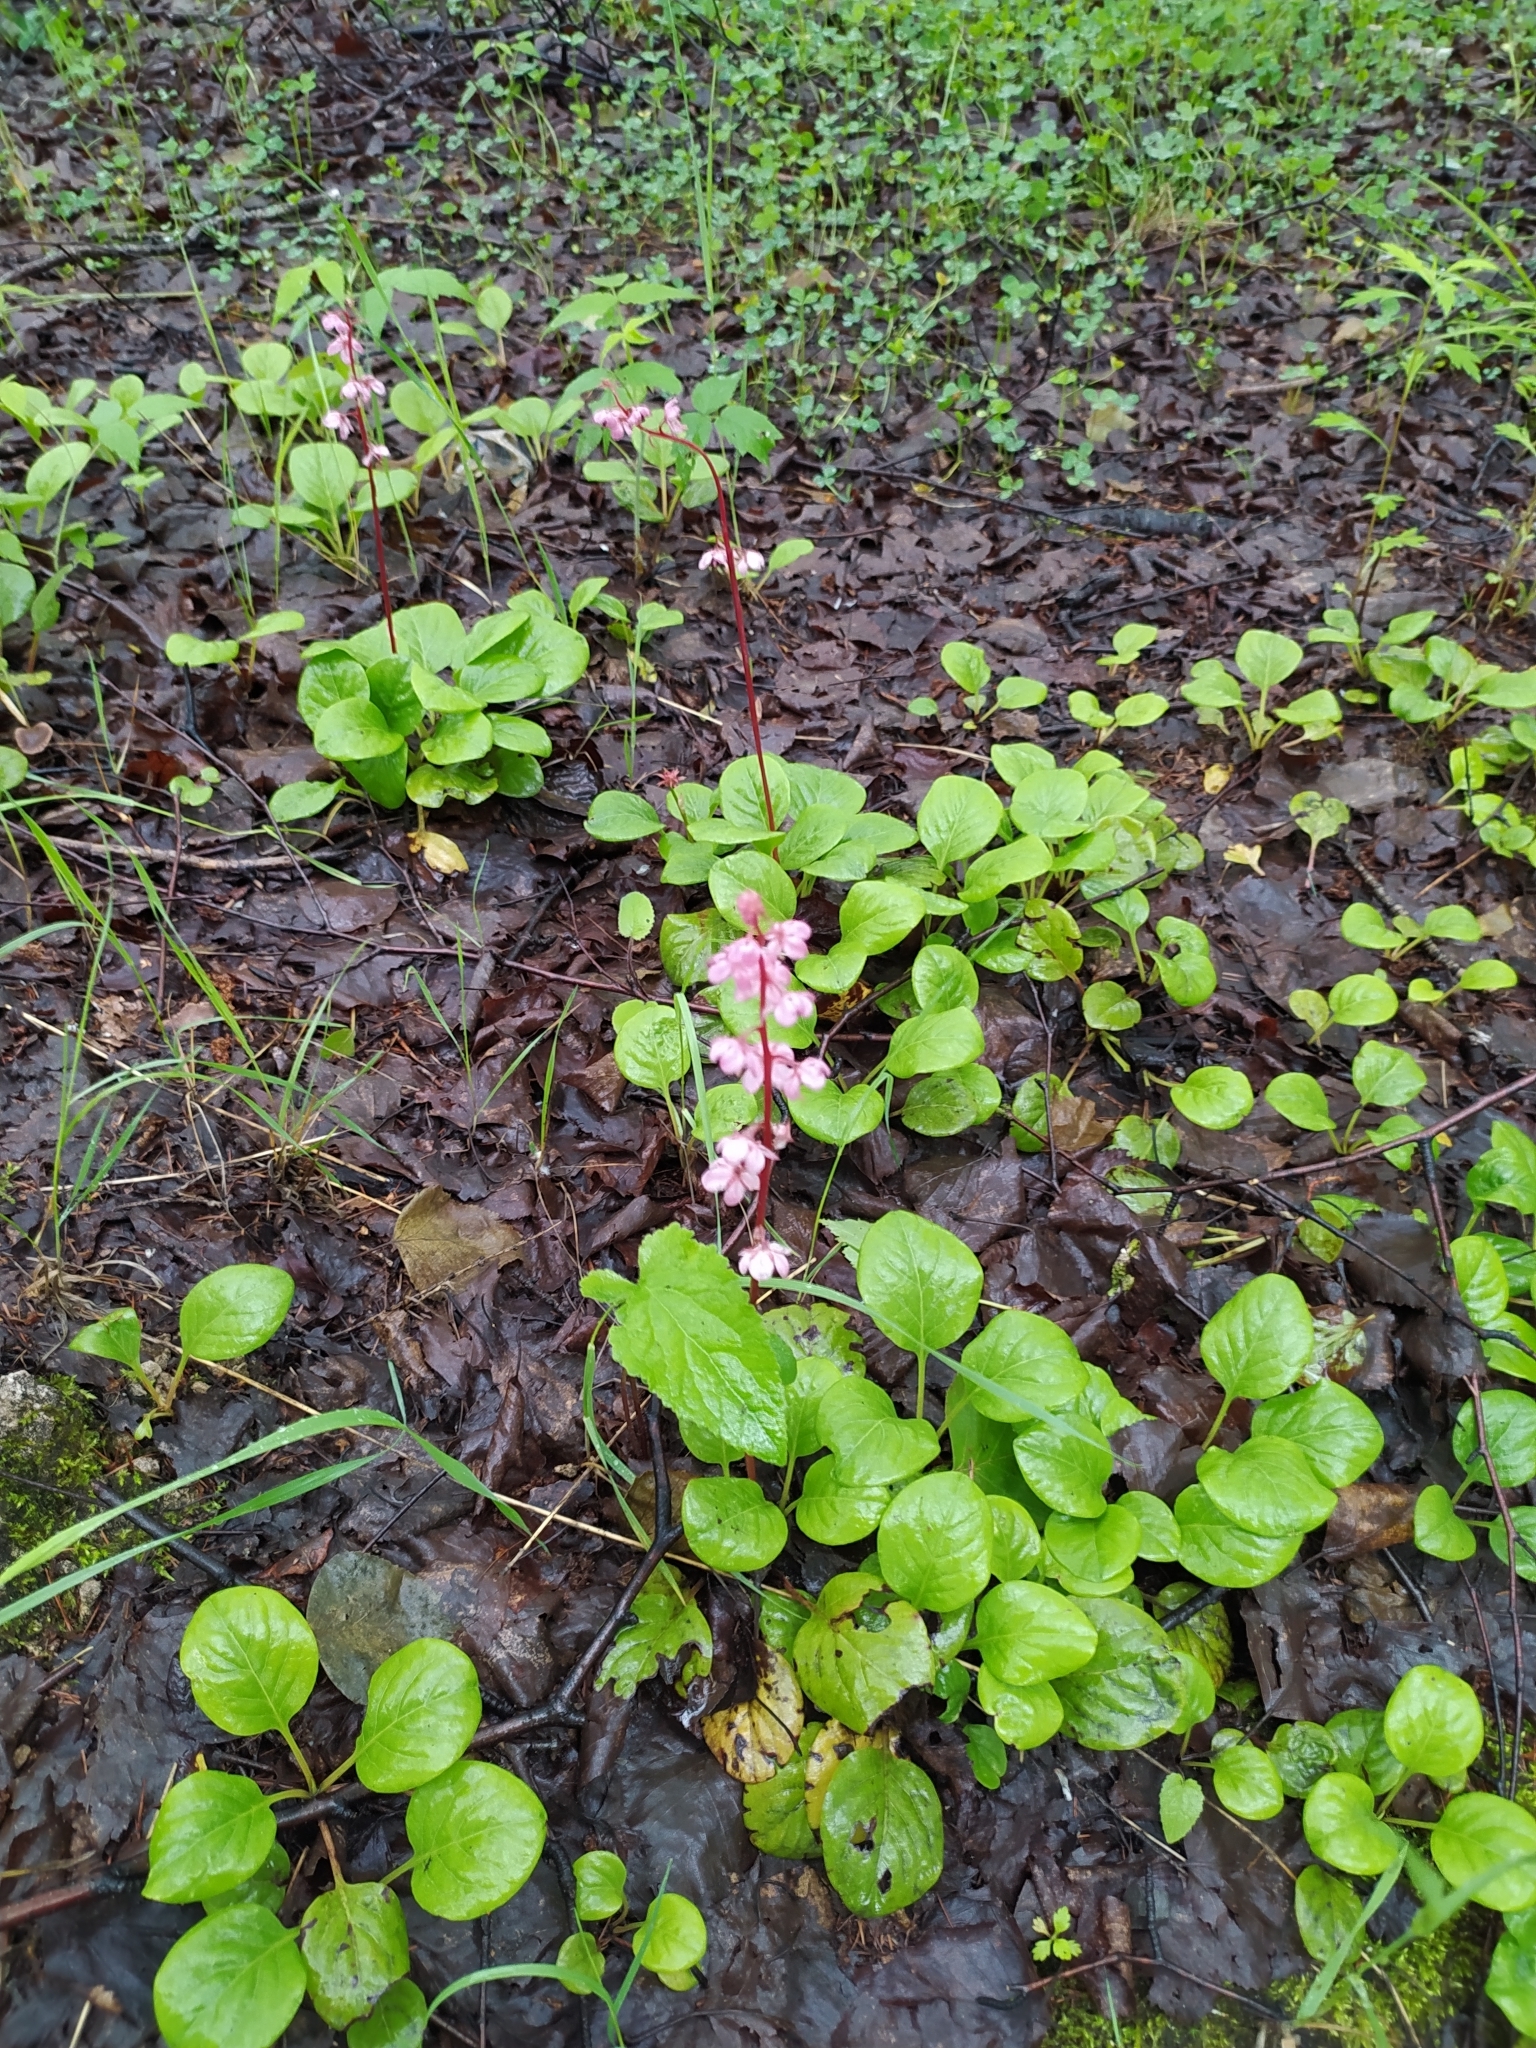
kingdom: Plantae
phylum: Tracheophyta
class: Magnoliopsida
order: Ericales
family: Ericaceae
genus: Pyrola
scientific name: Pyrola asarifolia
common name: Bog wintergreen
